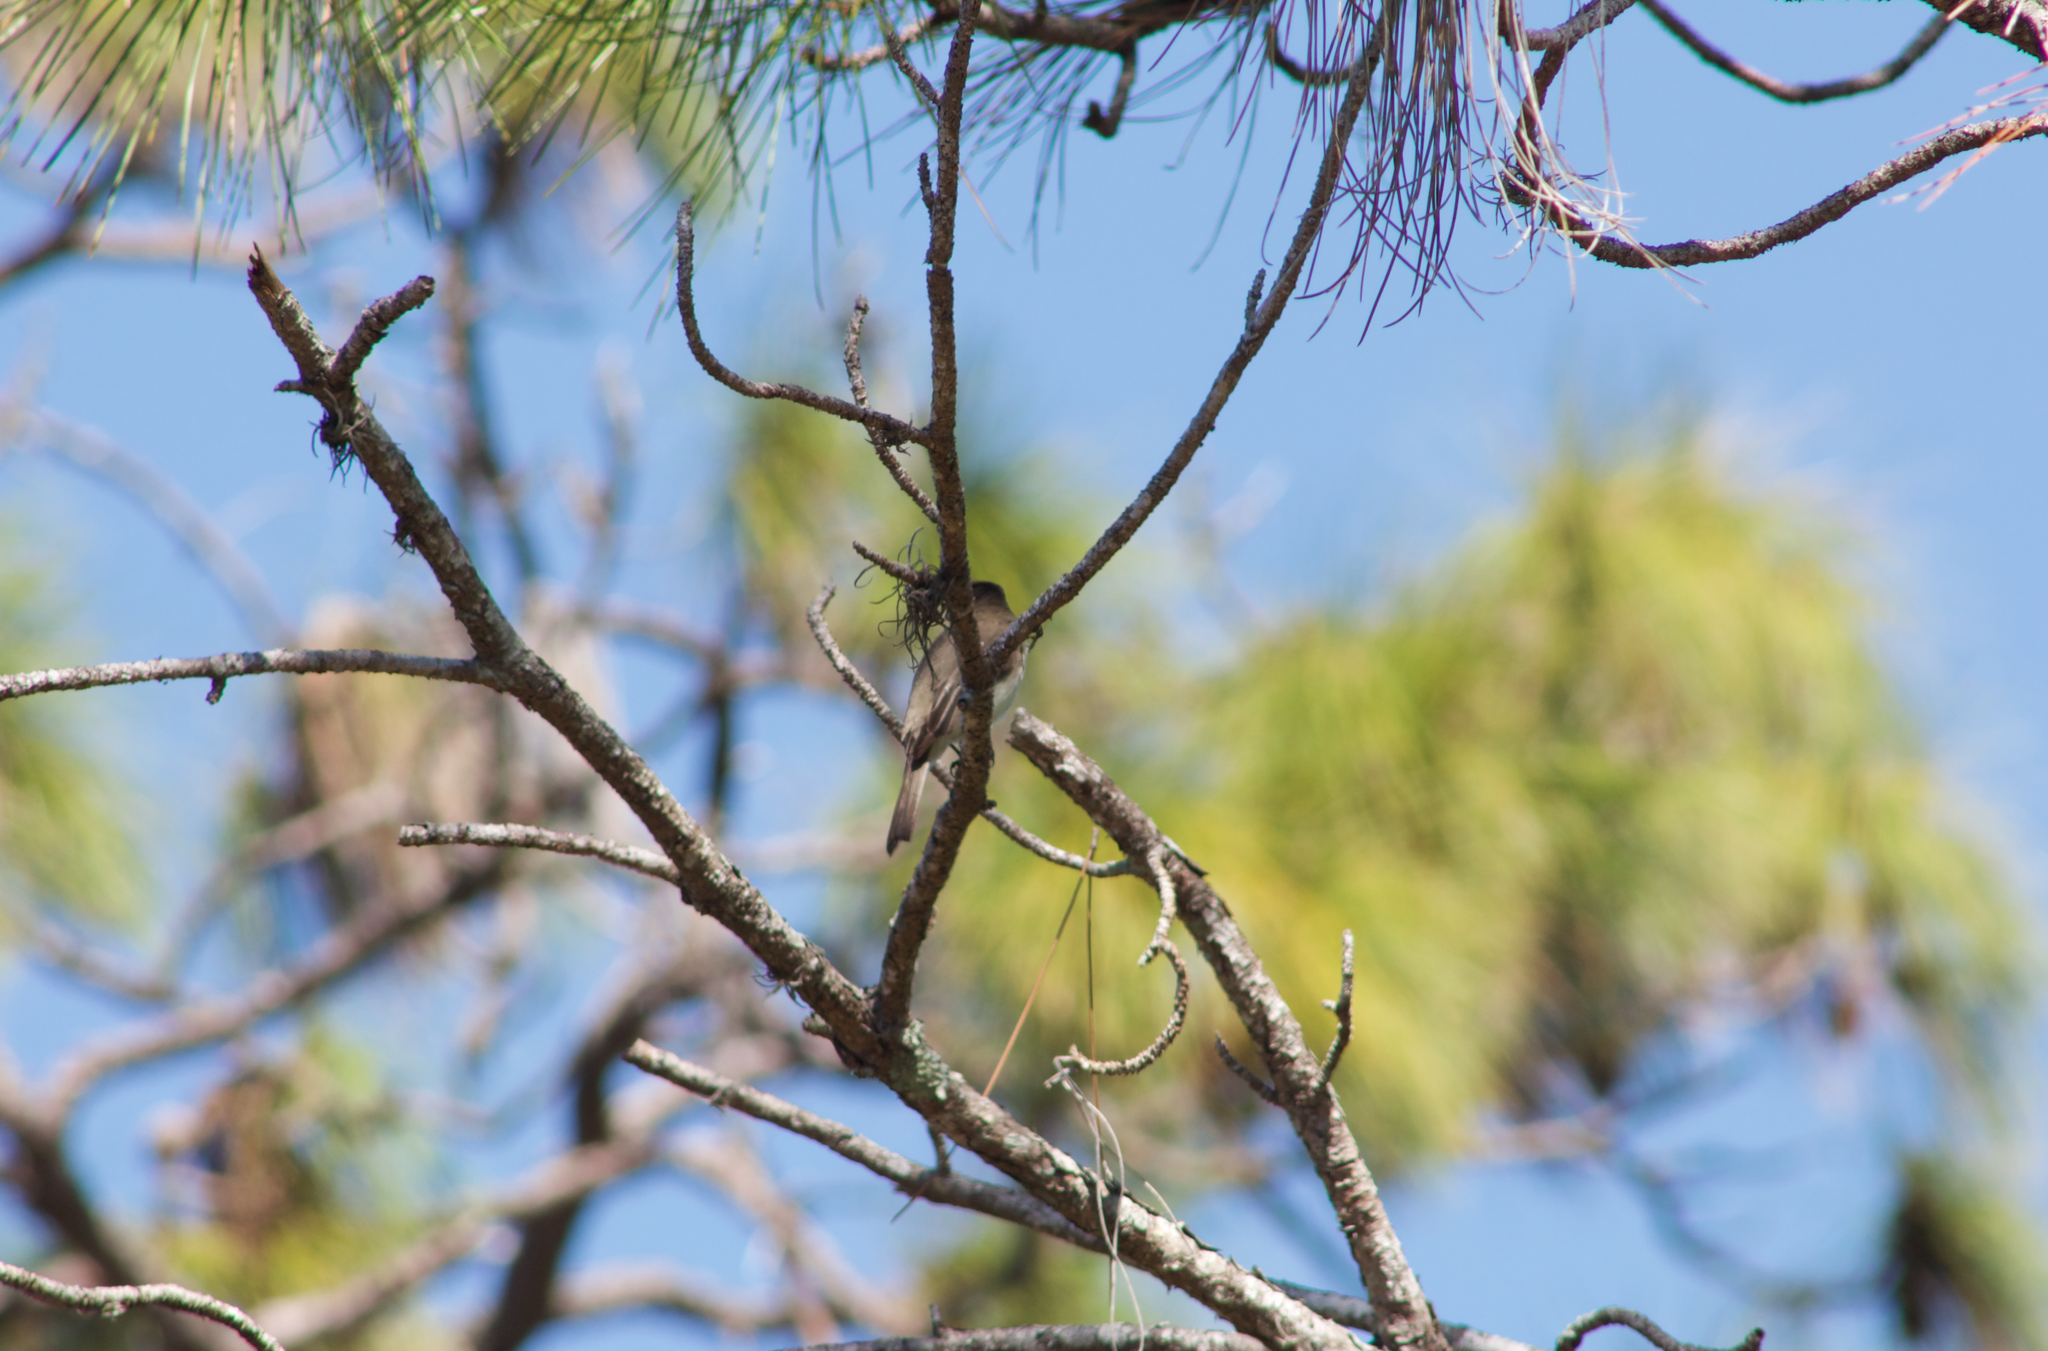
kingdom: Animalia
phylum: Chordata
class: Aves
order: Passeriformes
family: Tyrannidae
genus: Sayornis
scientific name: Sayornis phoebe
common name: Eastern phoebe
